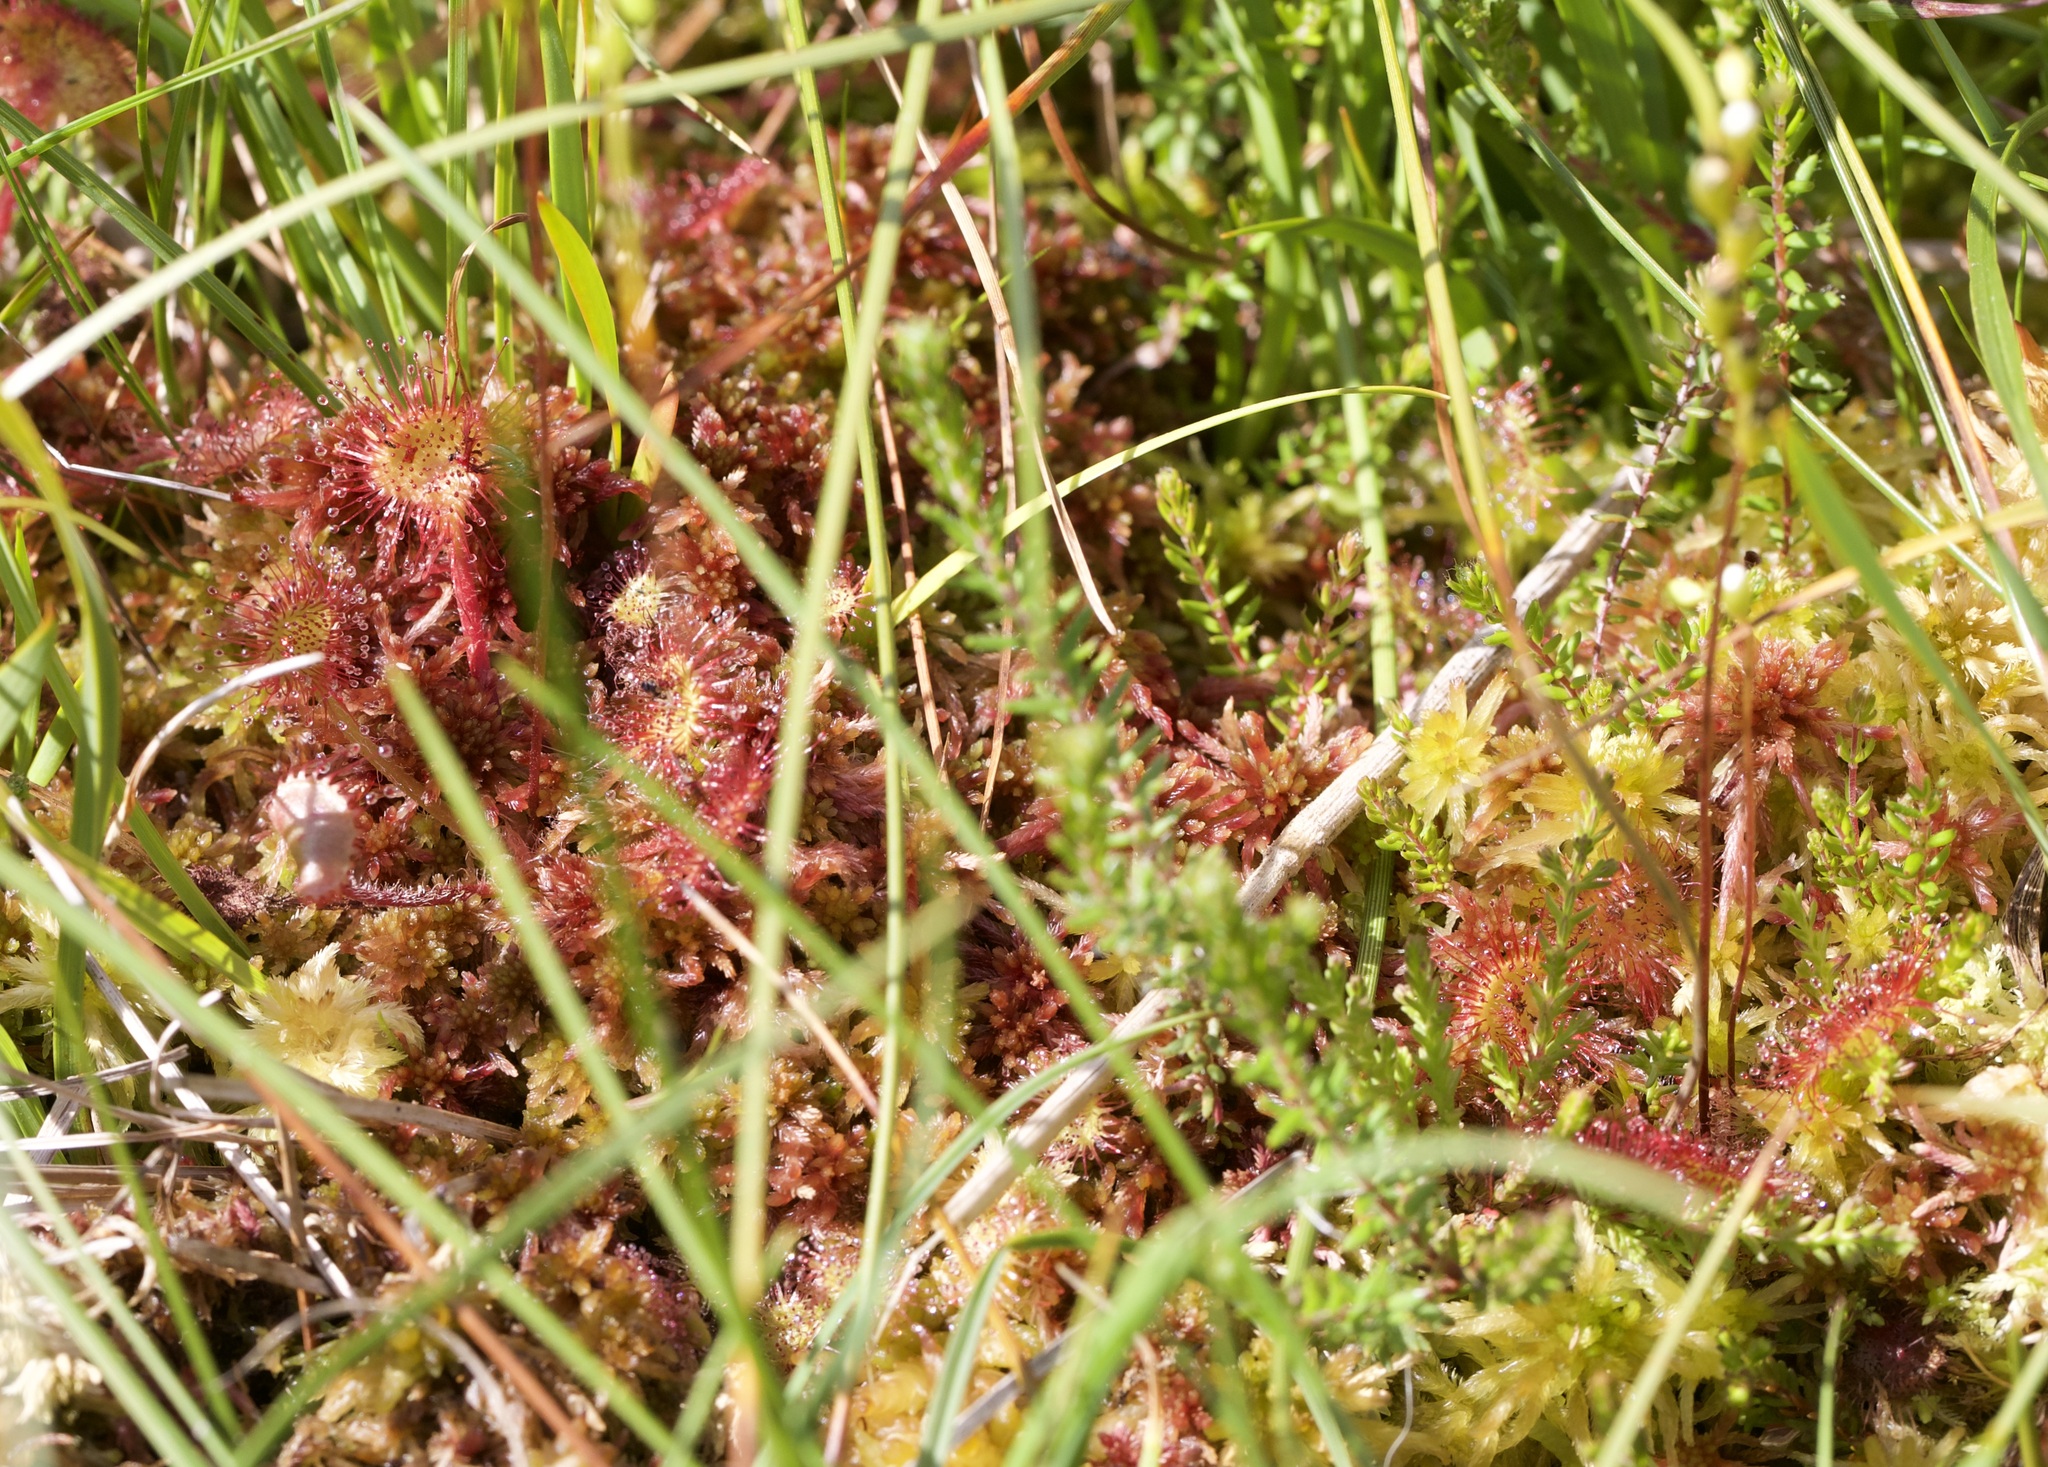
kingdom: Plantae
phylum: Tracheophyta
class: Magnoliopsida
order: Caryophyllales
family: Droseraceae
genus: Drosera
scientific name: Drosera rotundifolia
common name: Round-leaved sundew
